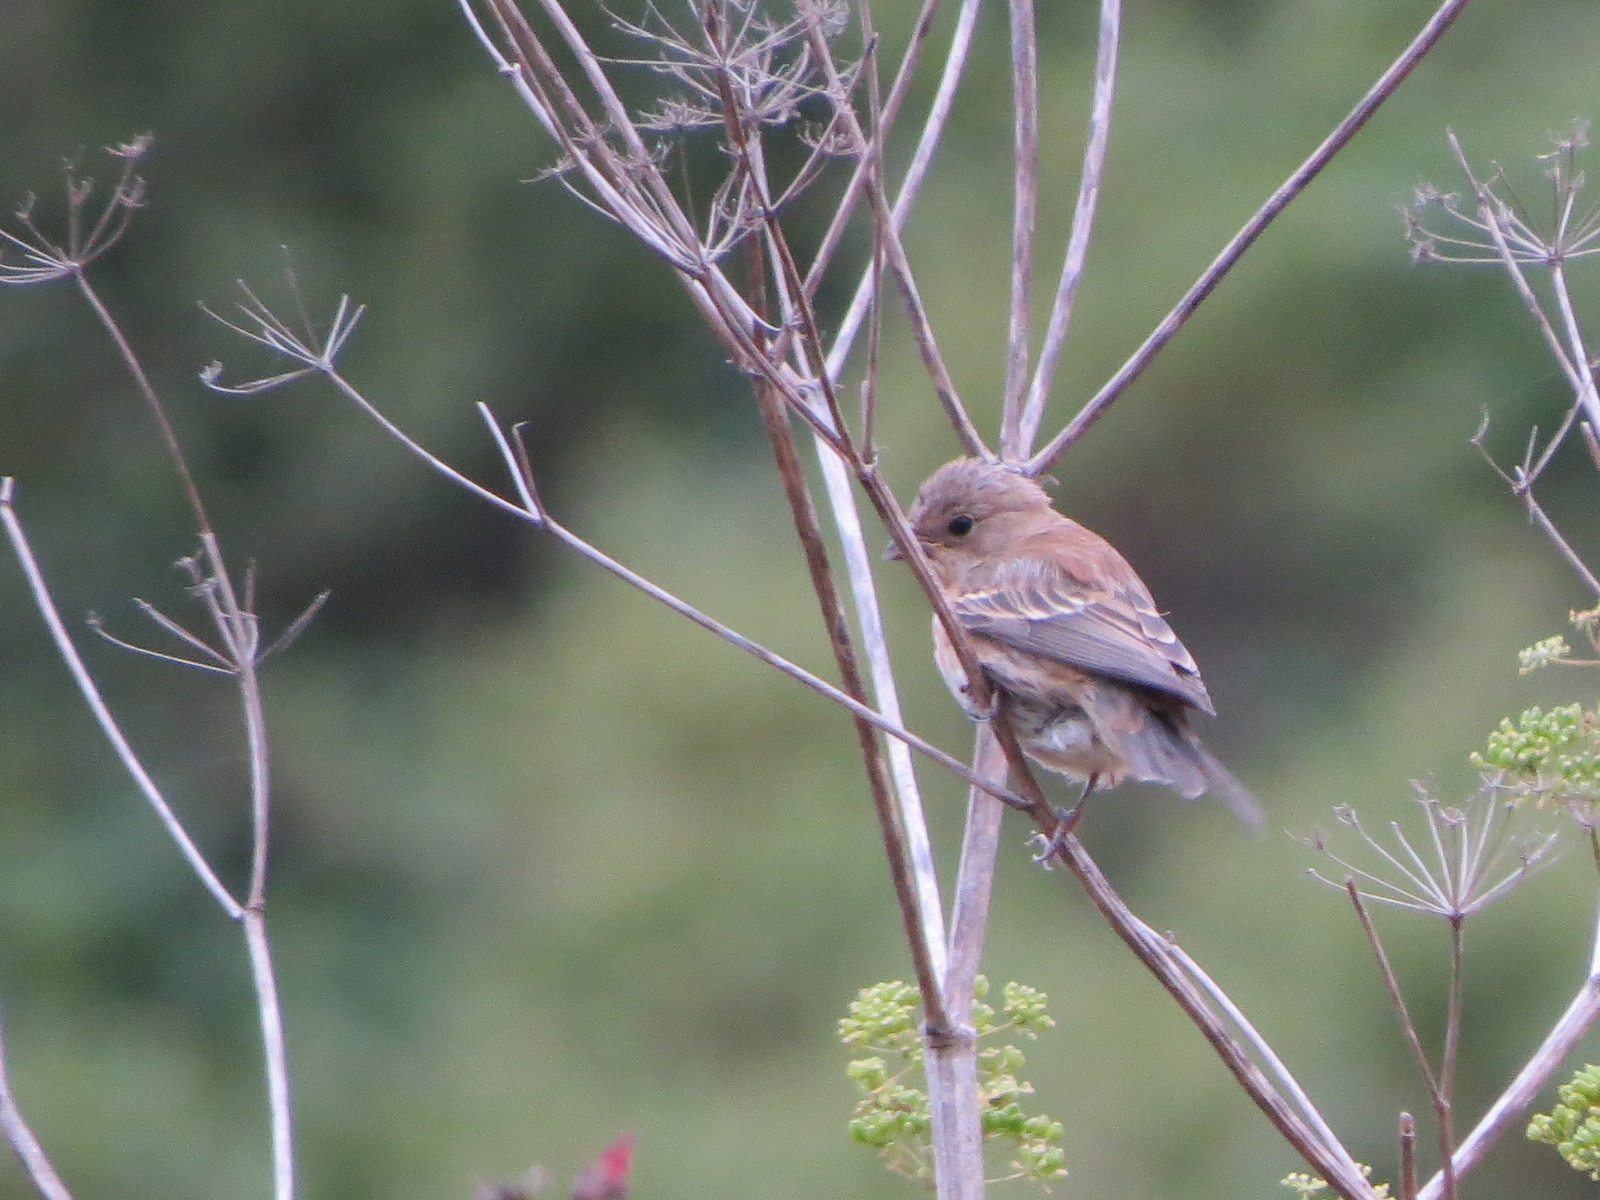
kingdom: Animalia
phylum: Chordata
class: Aves
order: Passeriformes
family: Cardinalidae
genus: Passerina
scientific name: Passerina amoena
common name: Lazuli bunting
